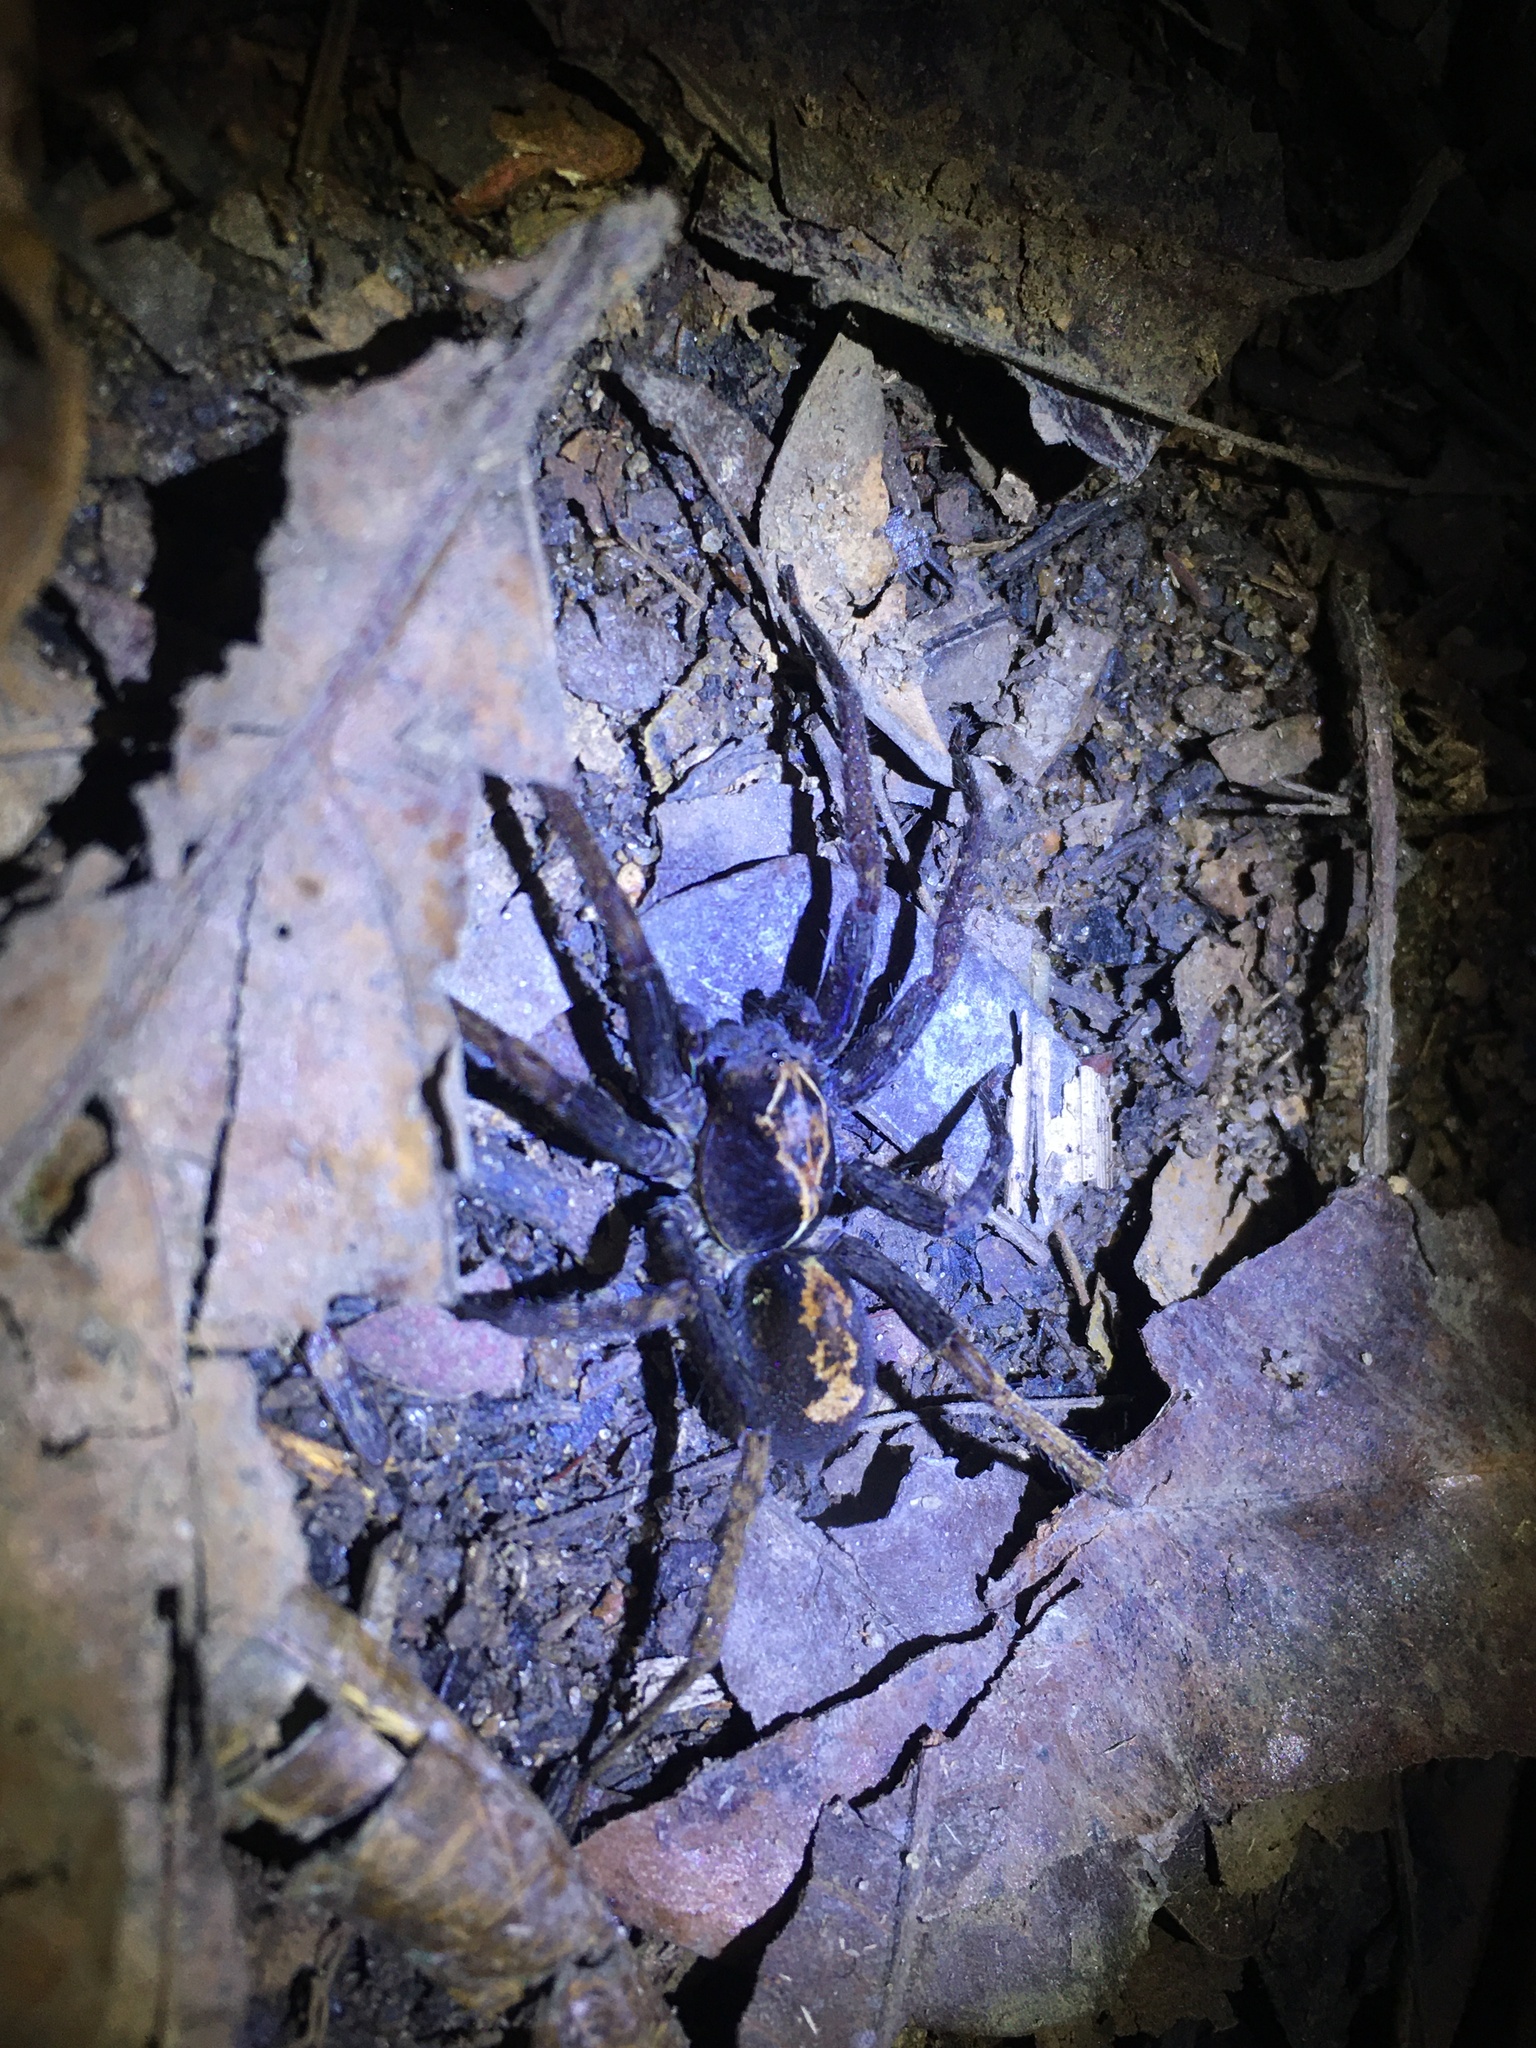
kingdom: Animalia
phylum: Arthropoda
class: Arachnida
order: Araneae
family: Ctenidae
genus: Ctenus
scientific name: Ctenus ornatus
